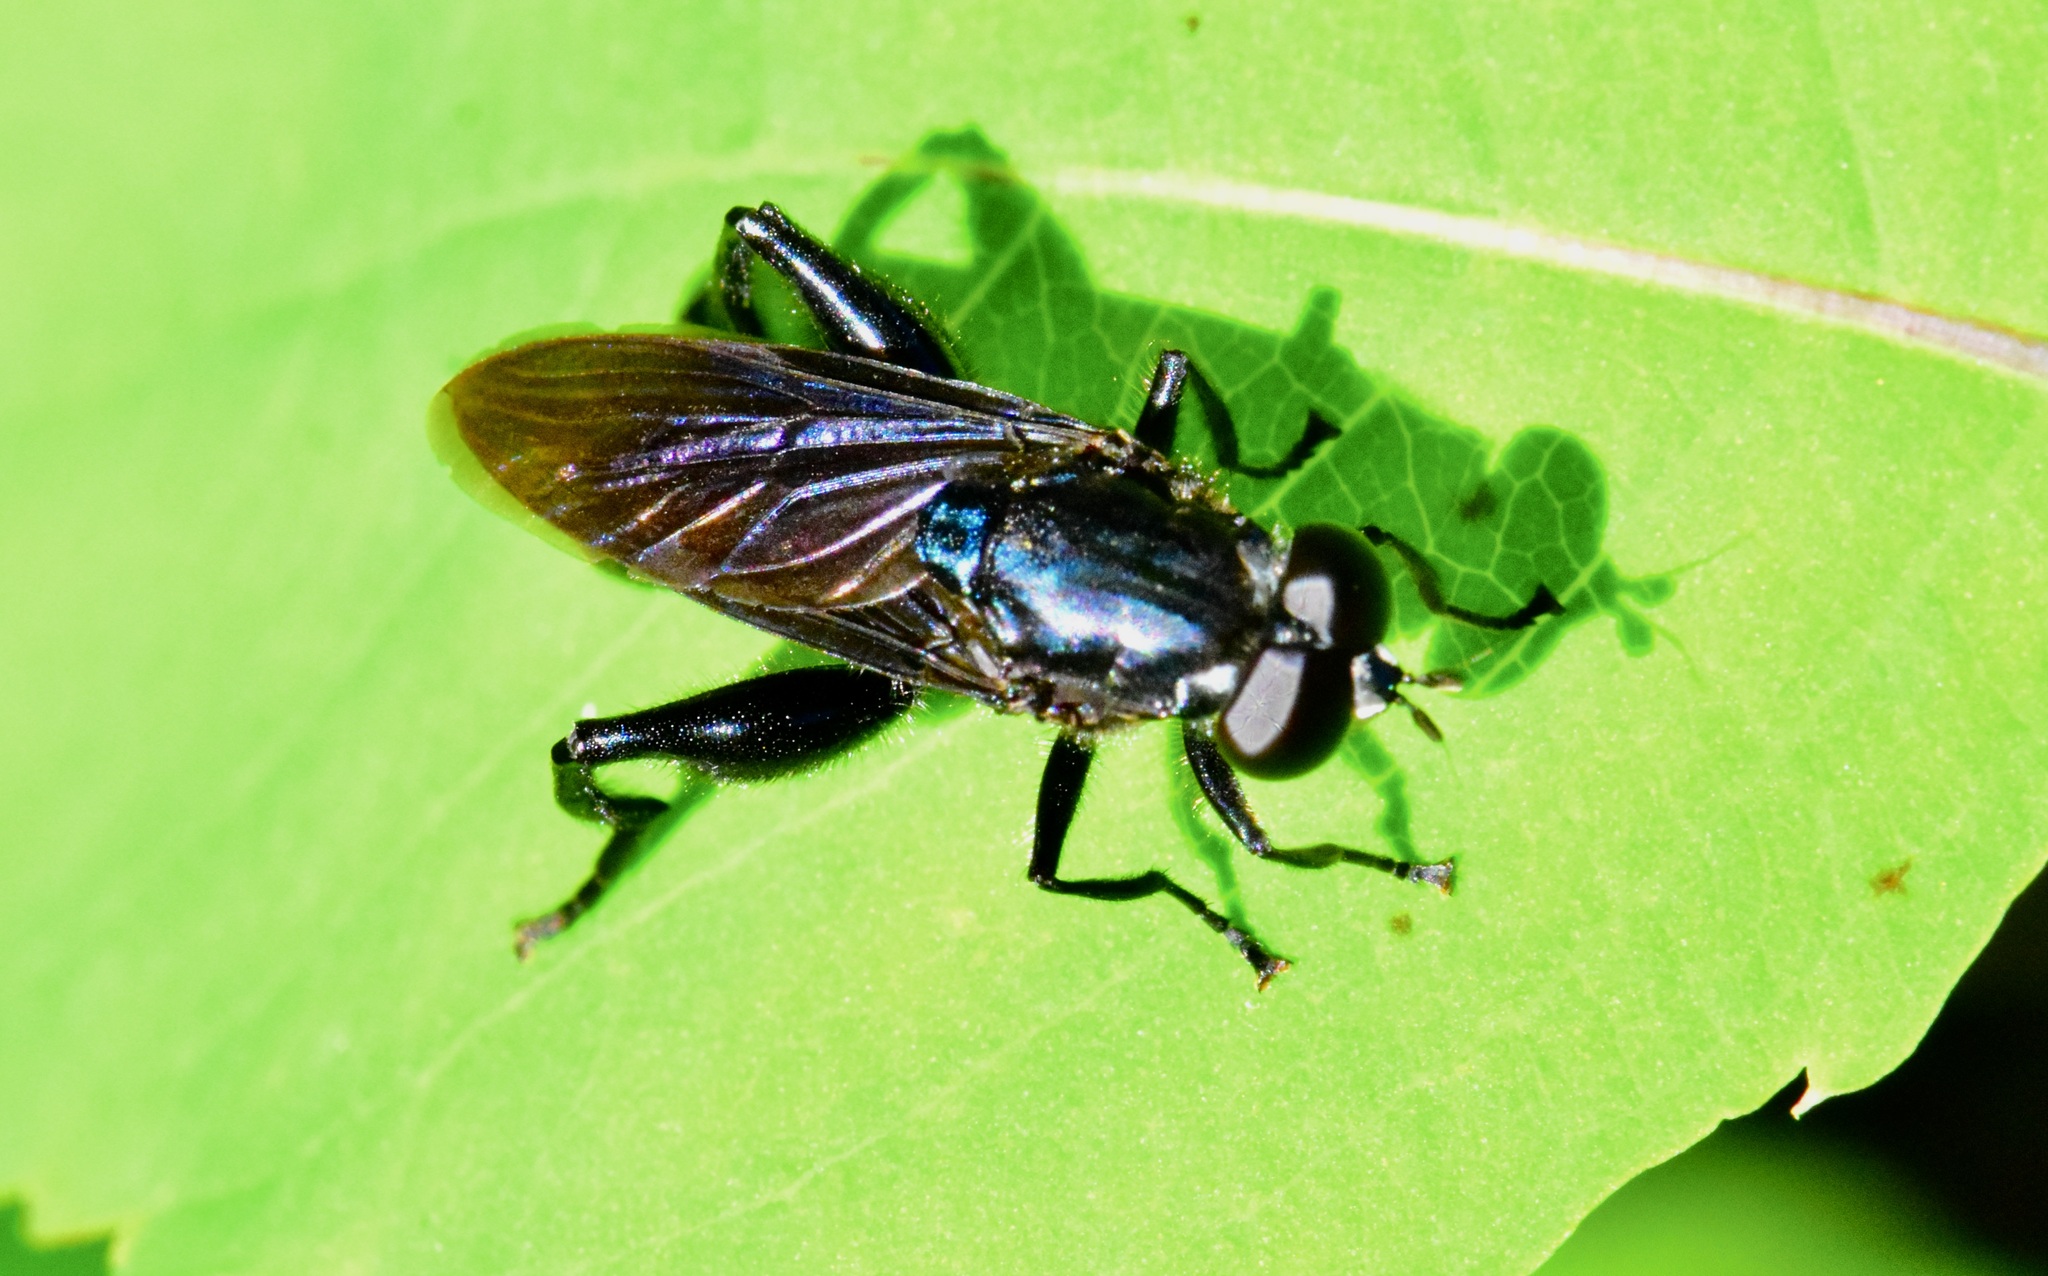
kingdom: Animalia
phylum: Arthropoda
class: Insecta
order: Diptera
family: Syrphidae
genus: Chalcosyrphus
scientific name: Chalcosyrphus chalybeus
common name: Violet leafwalker
